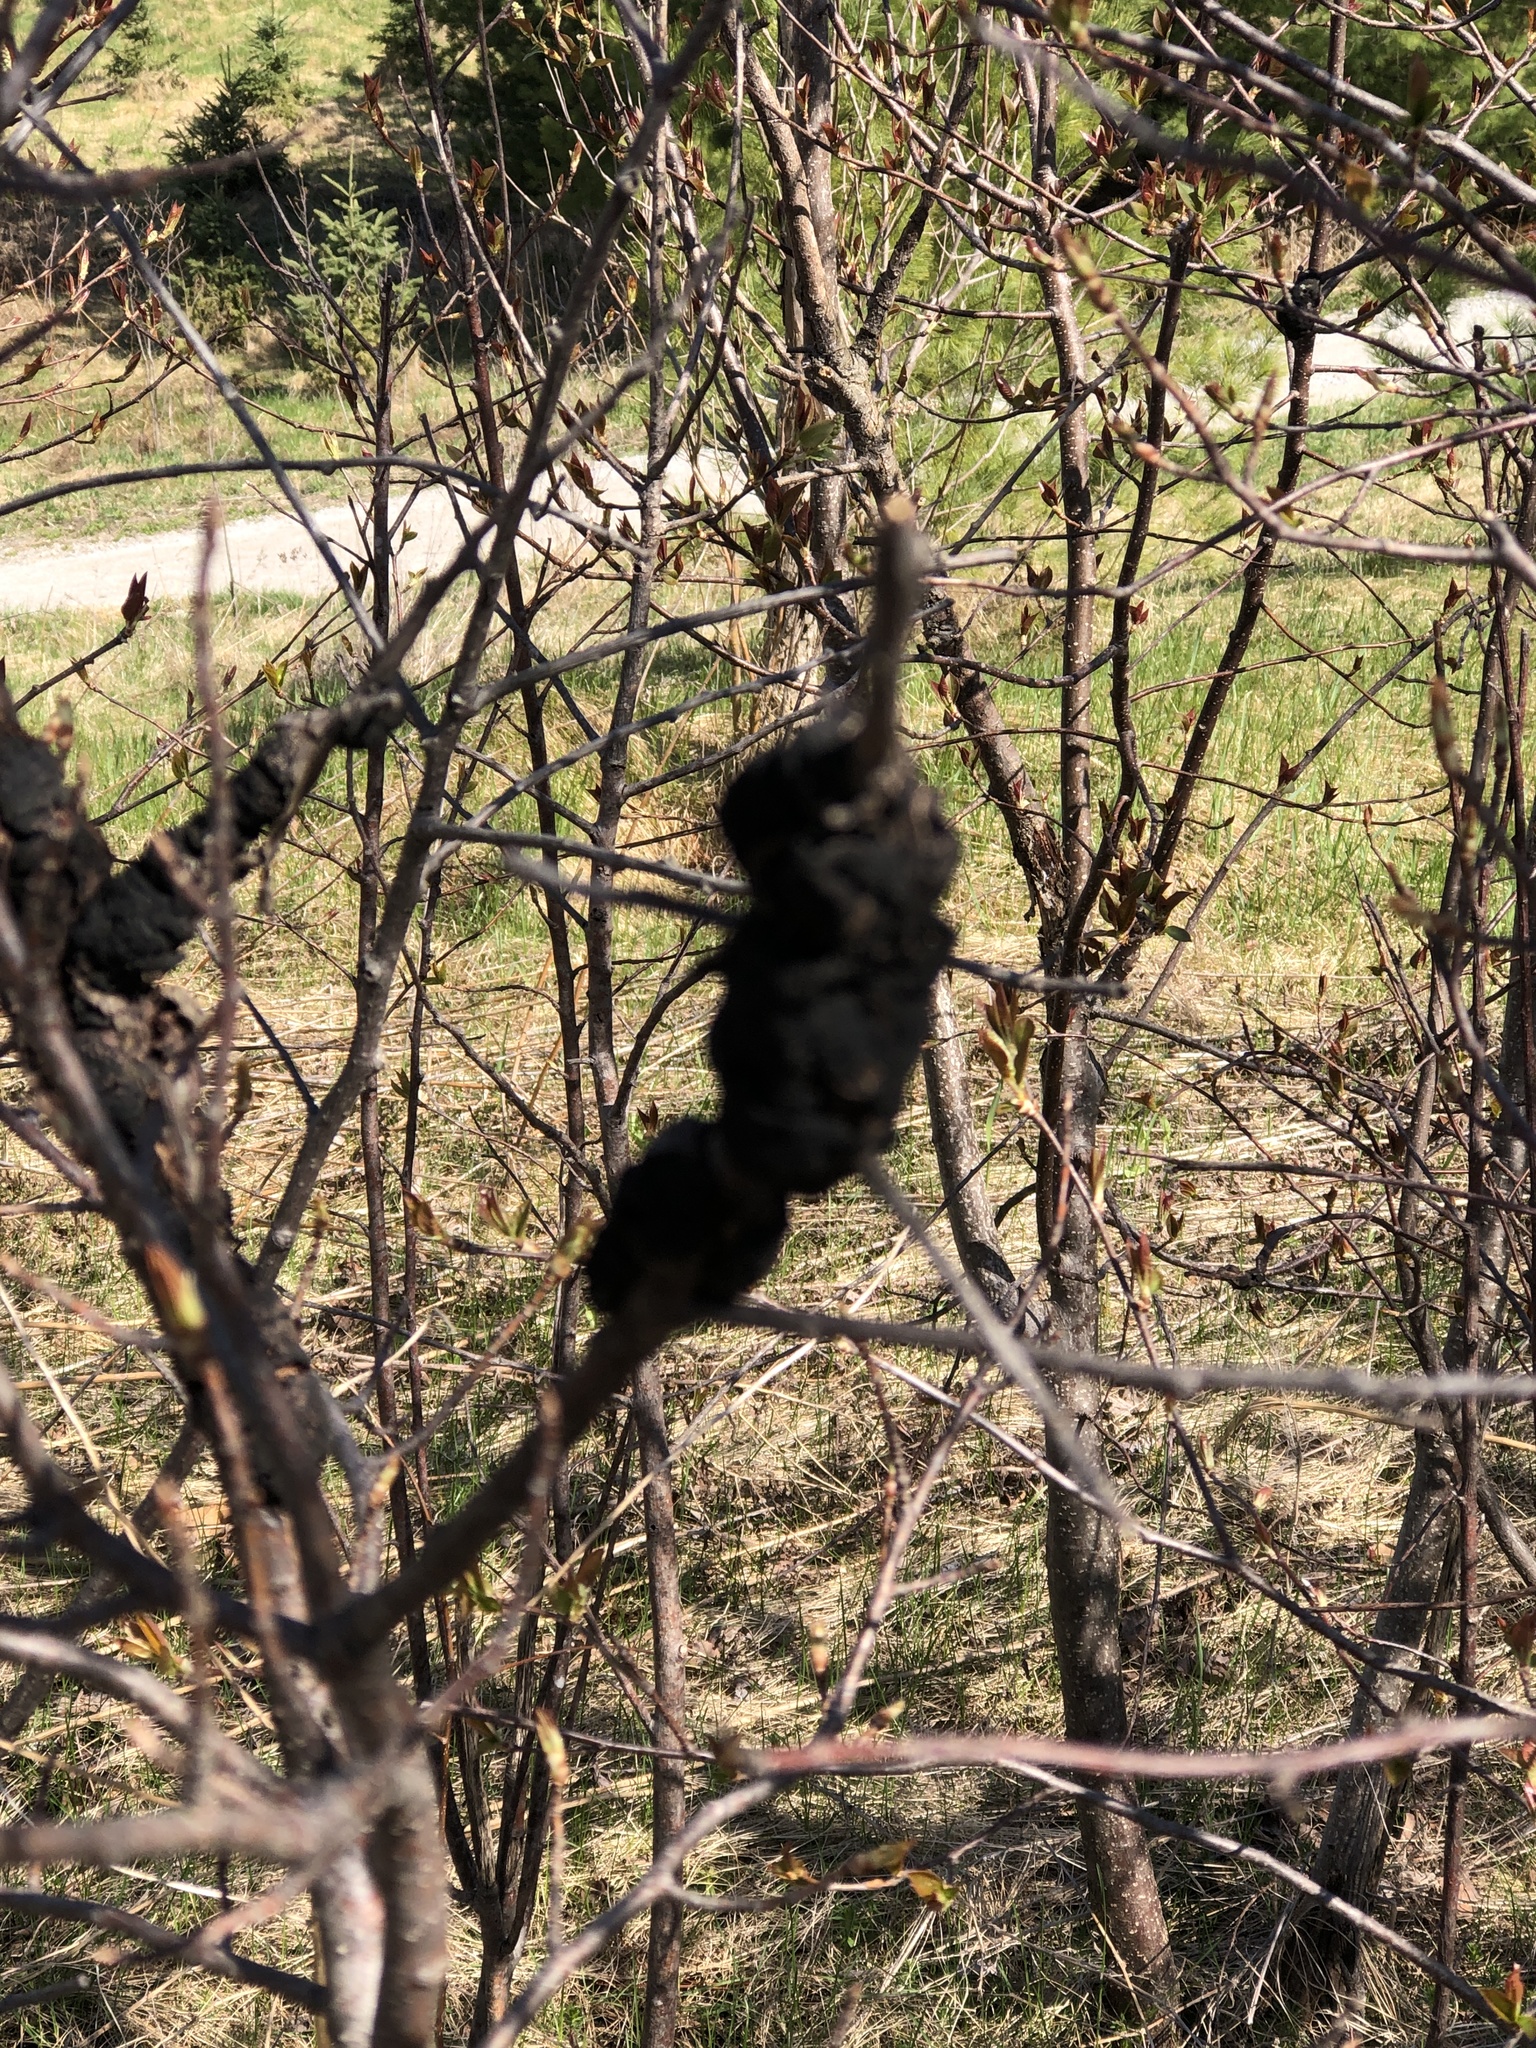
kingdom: Fungi
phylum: Ascomycota
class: Dothideomycetes
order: Venturiales
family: Venturiaceae
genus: Apiosporina
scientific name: Apiosporina morbosa
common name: Black knot
